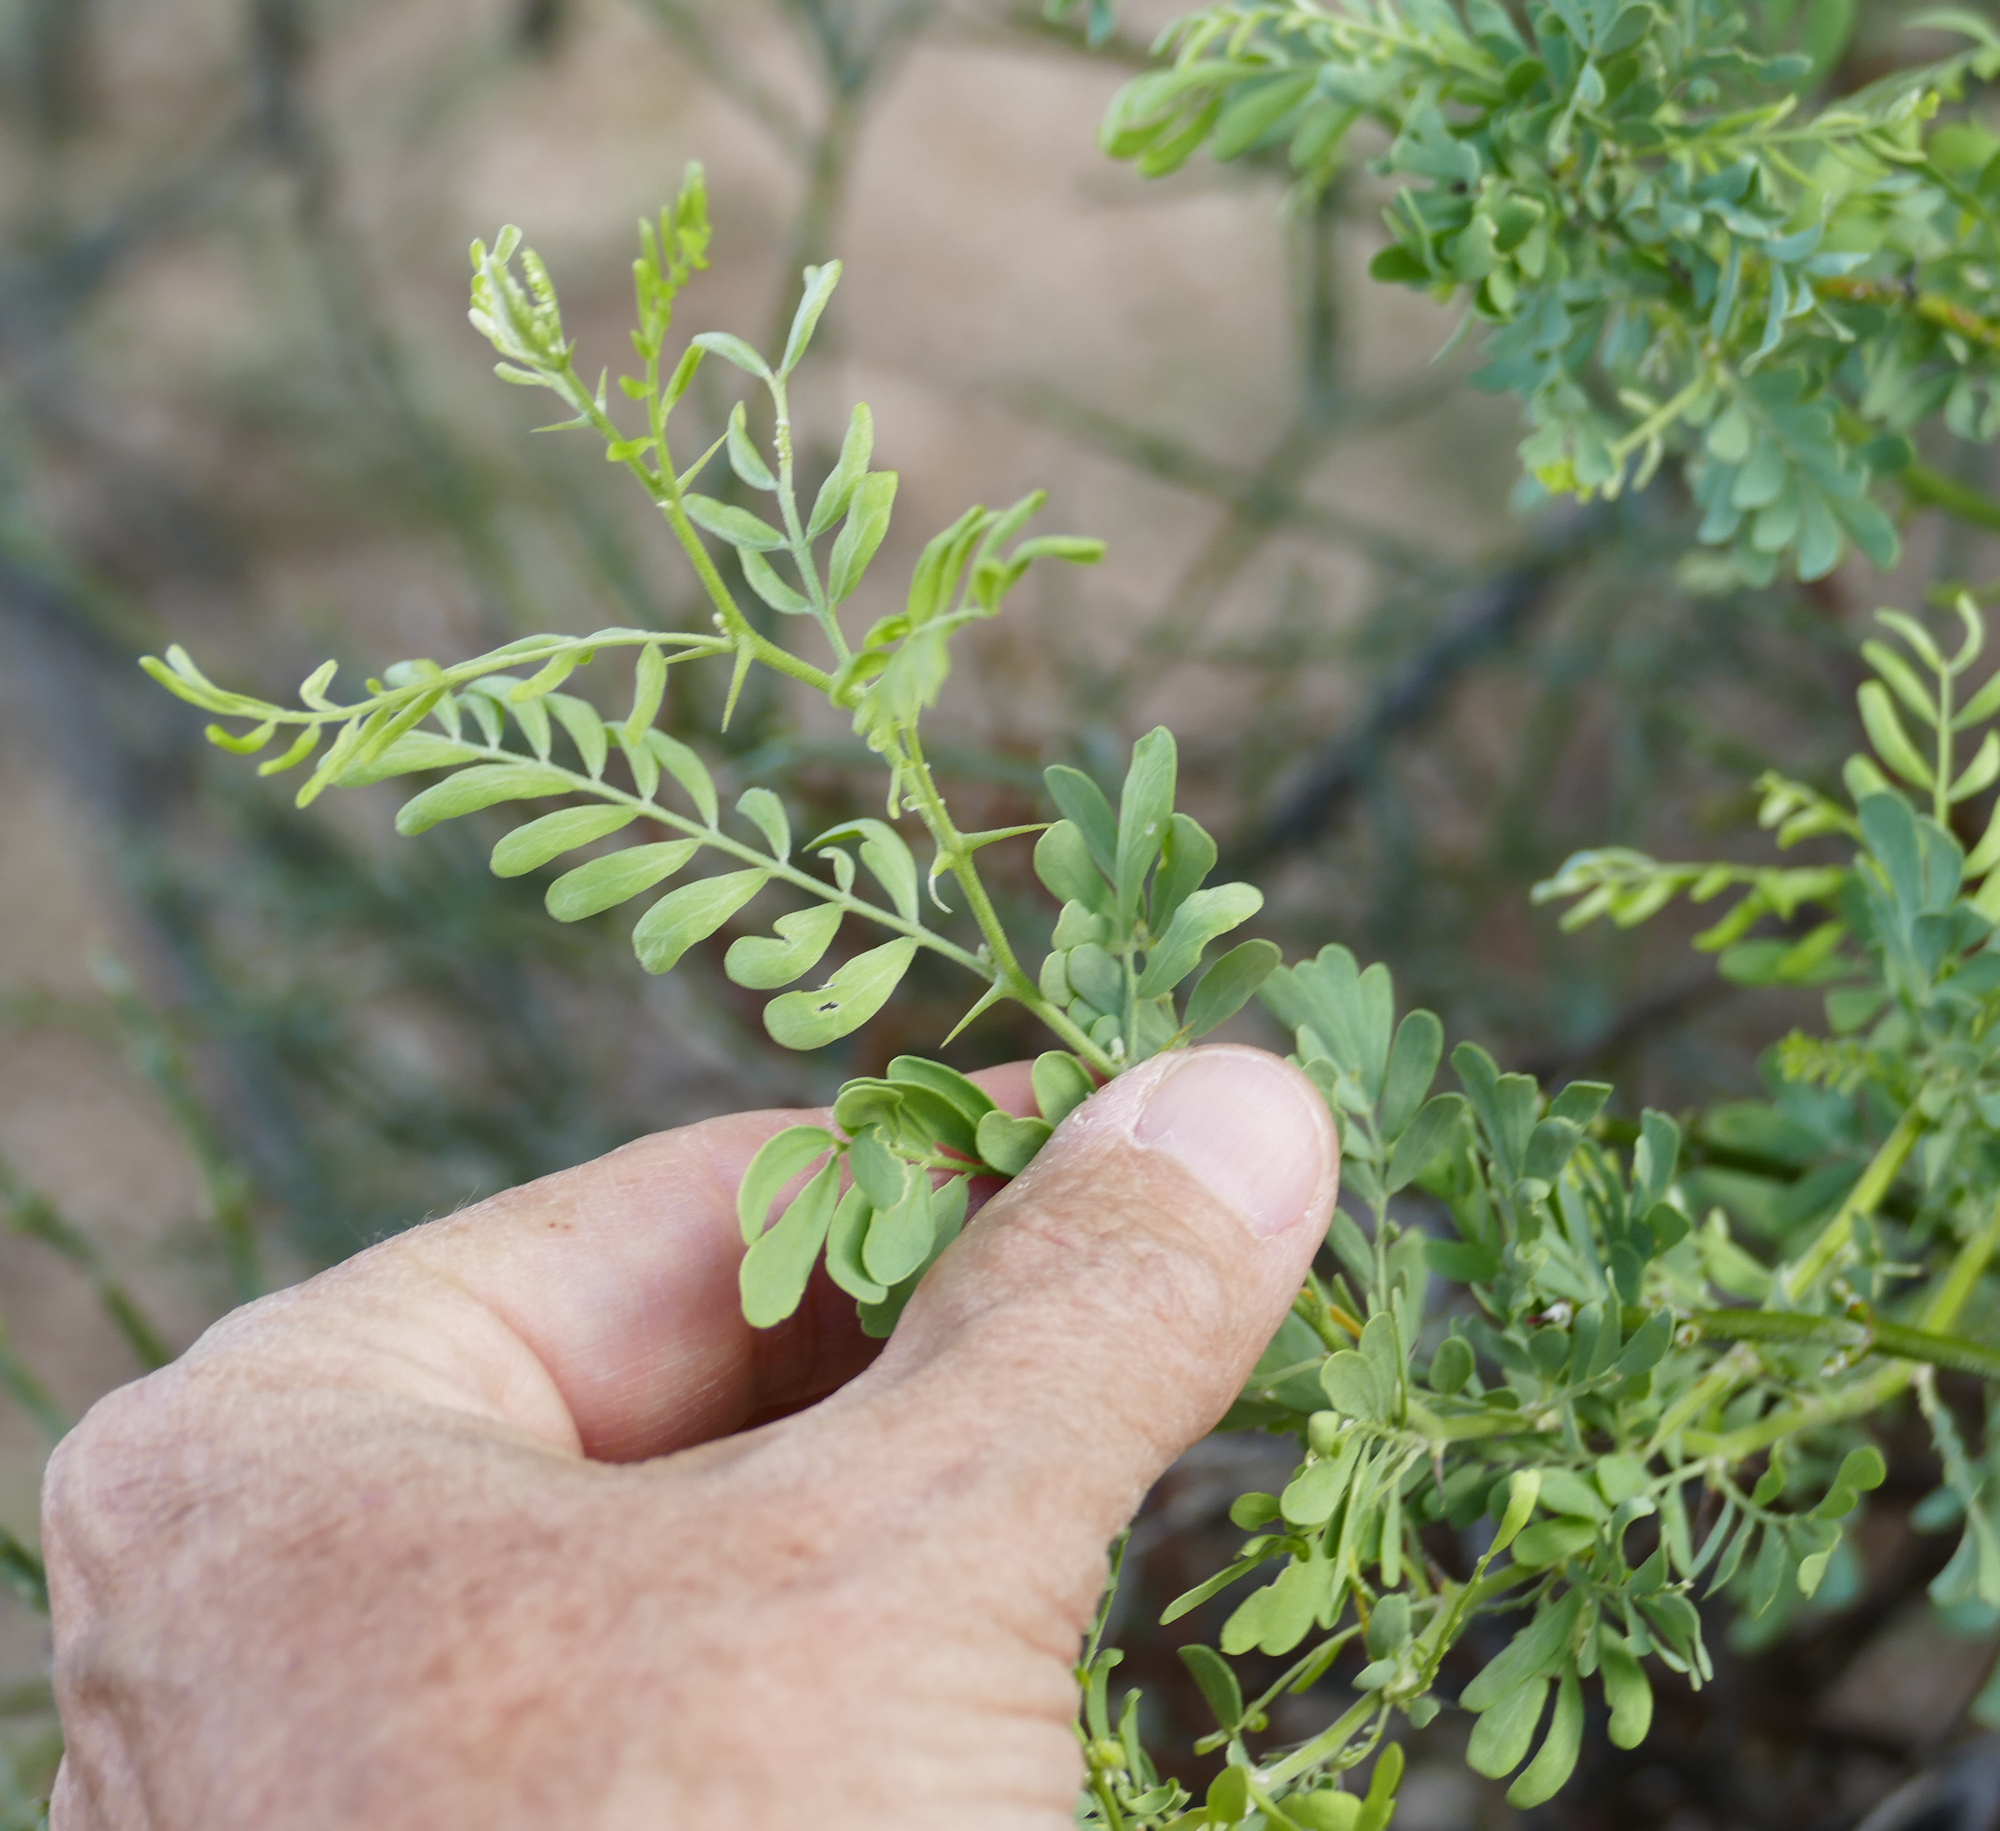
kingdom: Plantae
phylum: Tracheophyta
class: Magnoliopsida
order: Fabales
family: Fabaceae
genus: Olneya
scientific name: Olneya tesota
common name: Desert ironwood
